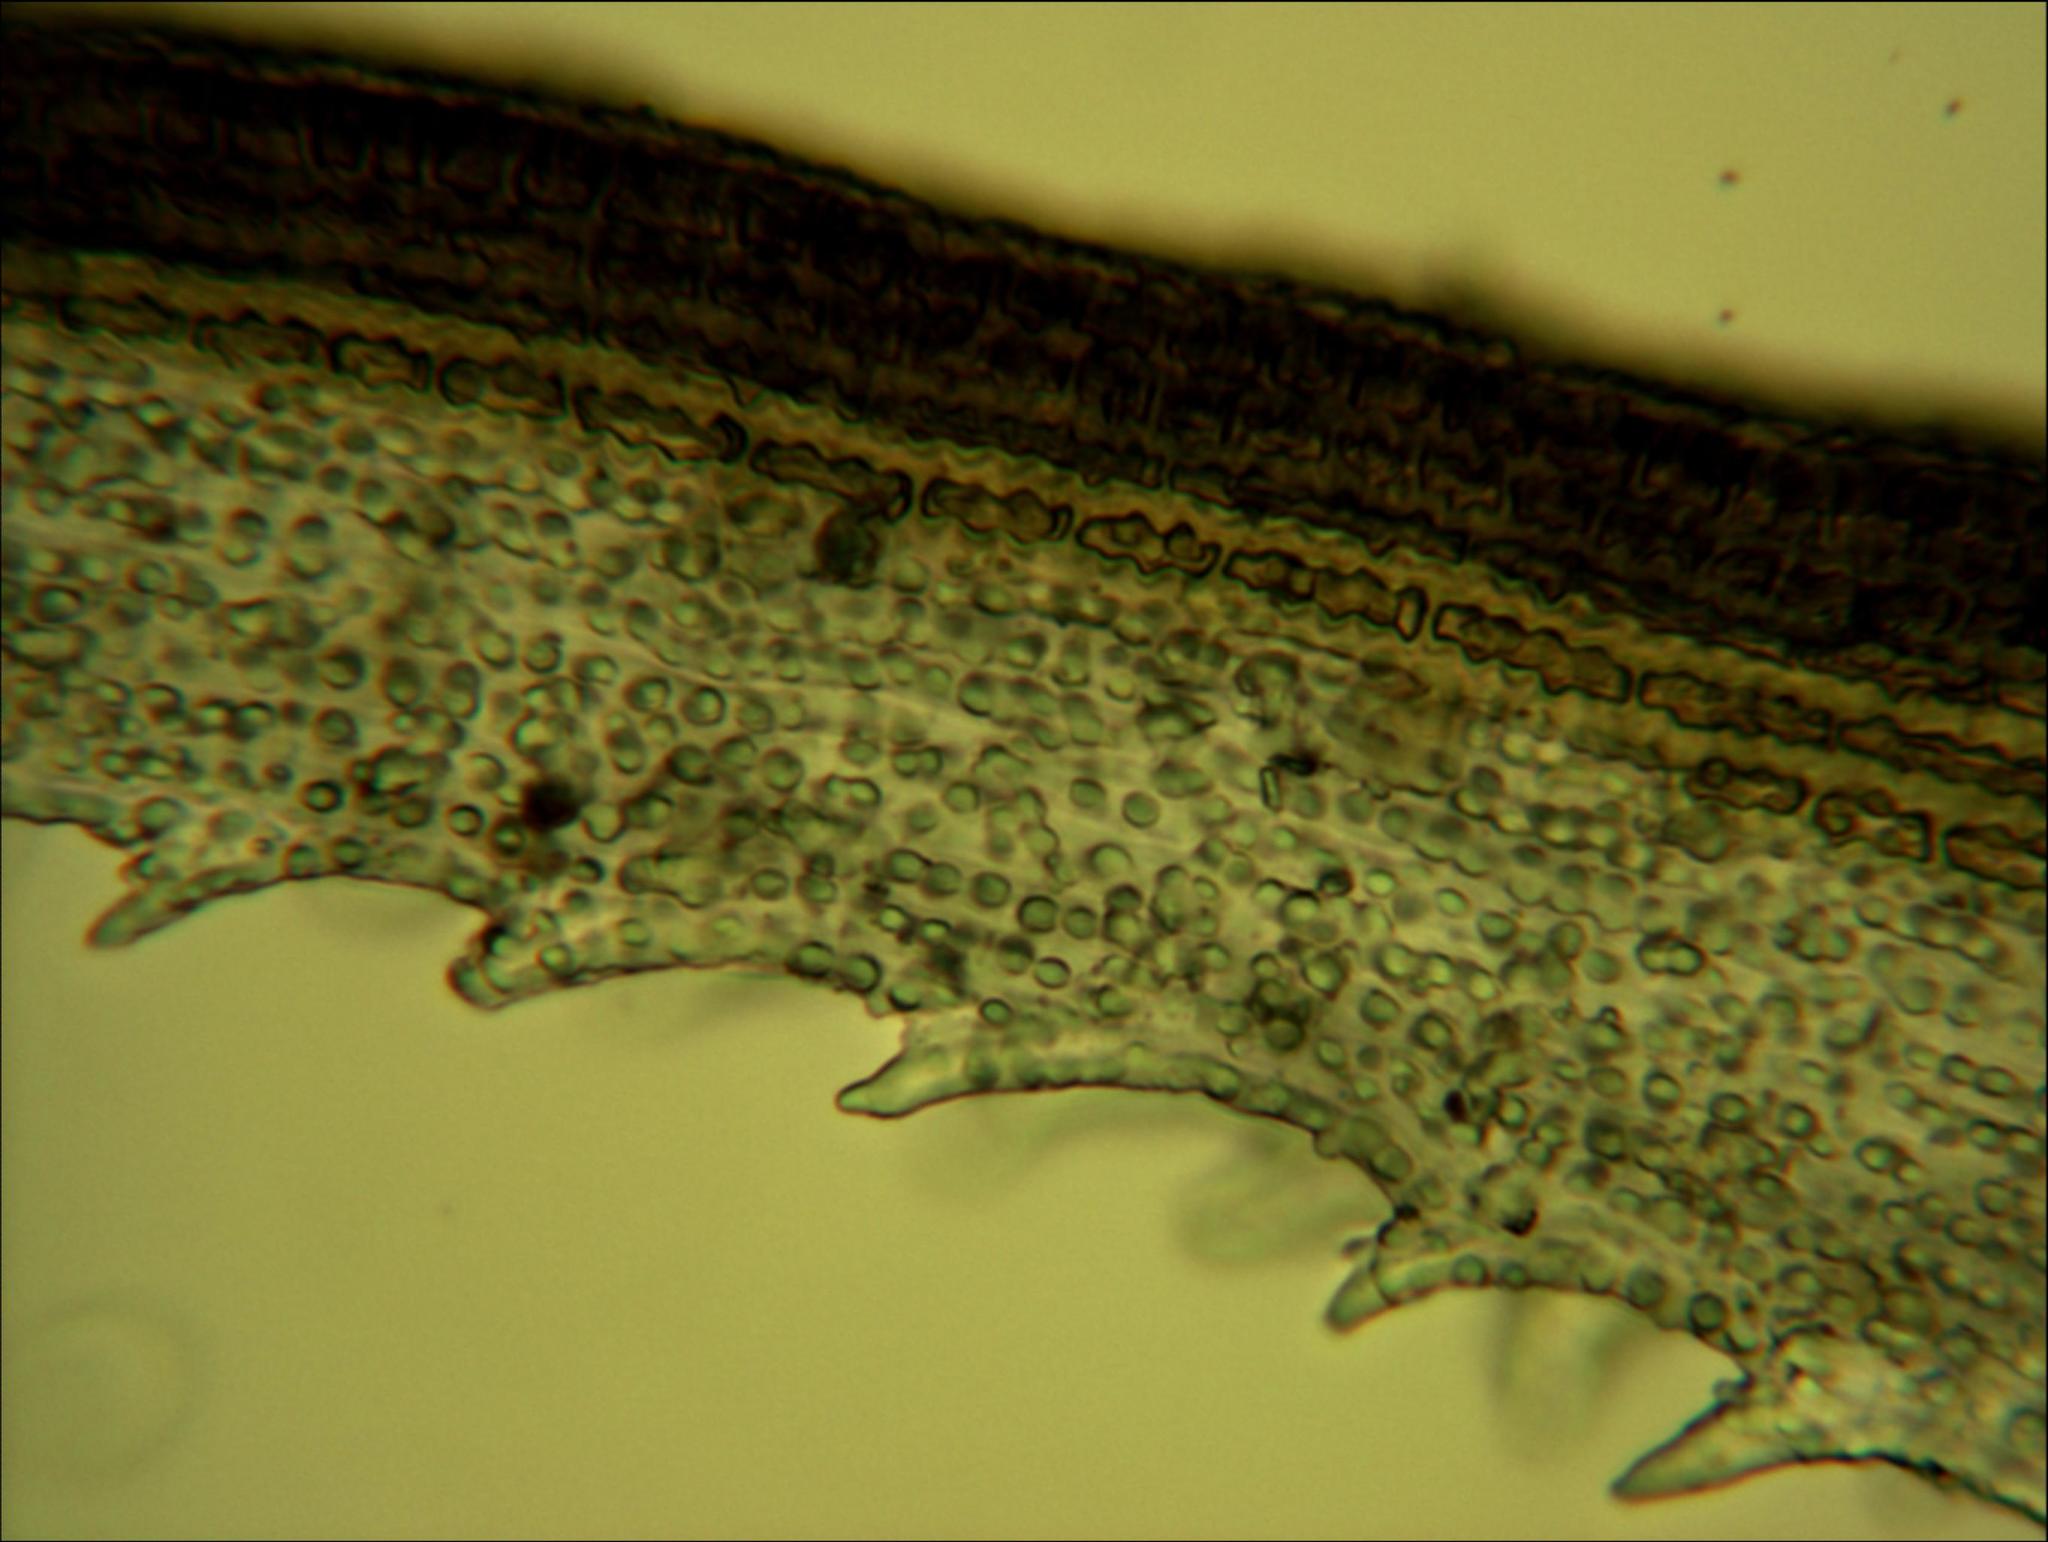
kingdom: Plantae
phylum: Bryophyta
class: Bryopsida
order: Grimmiales
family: Grimmiaceae
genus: Racomitrium
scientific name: Racomitrium pruinosum
